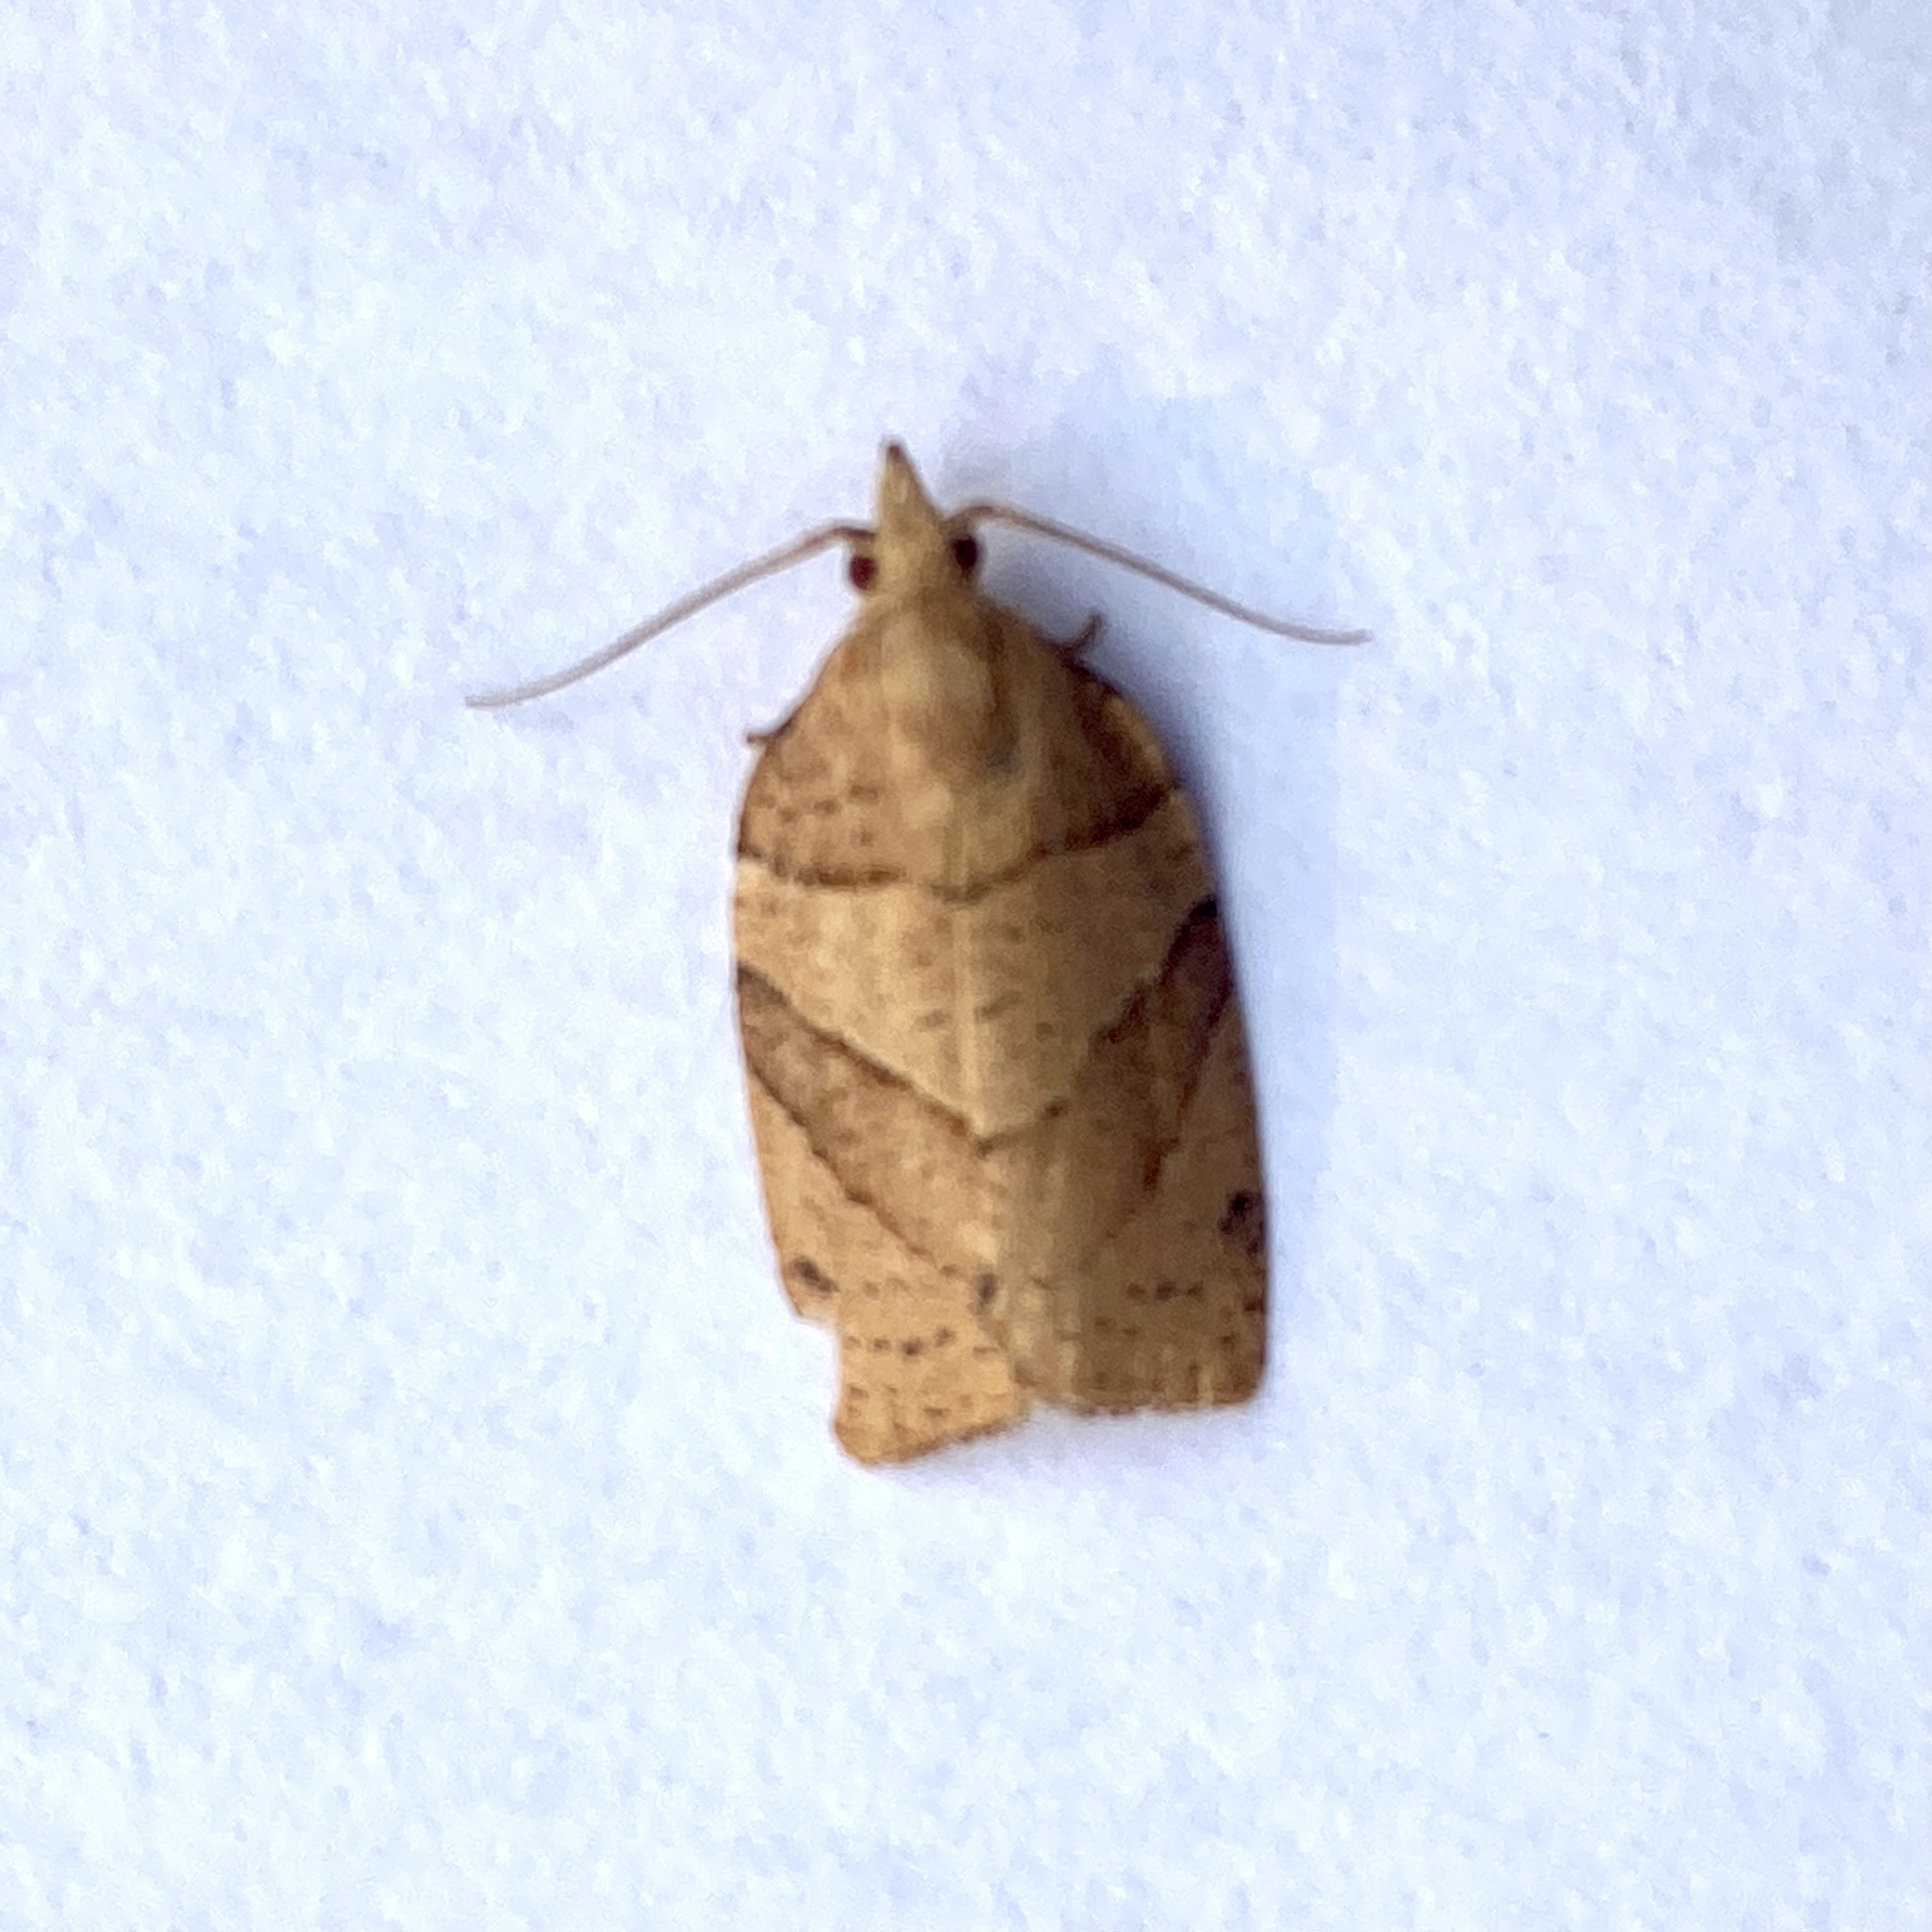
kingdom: Animalia
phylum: Arthropoda
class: Insecta
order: Lepidoptera
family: Tortricidae
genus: Pandemis
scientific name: Pandemis lamprosana
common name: Woodgrain leafroller moth
